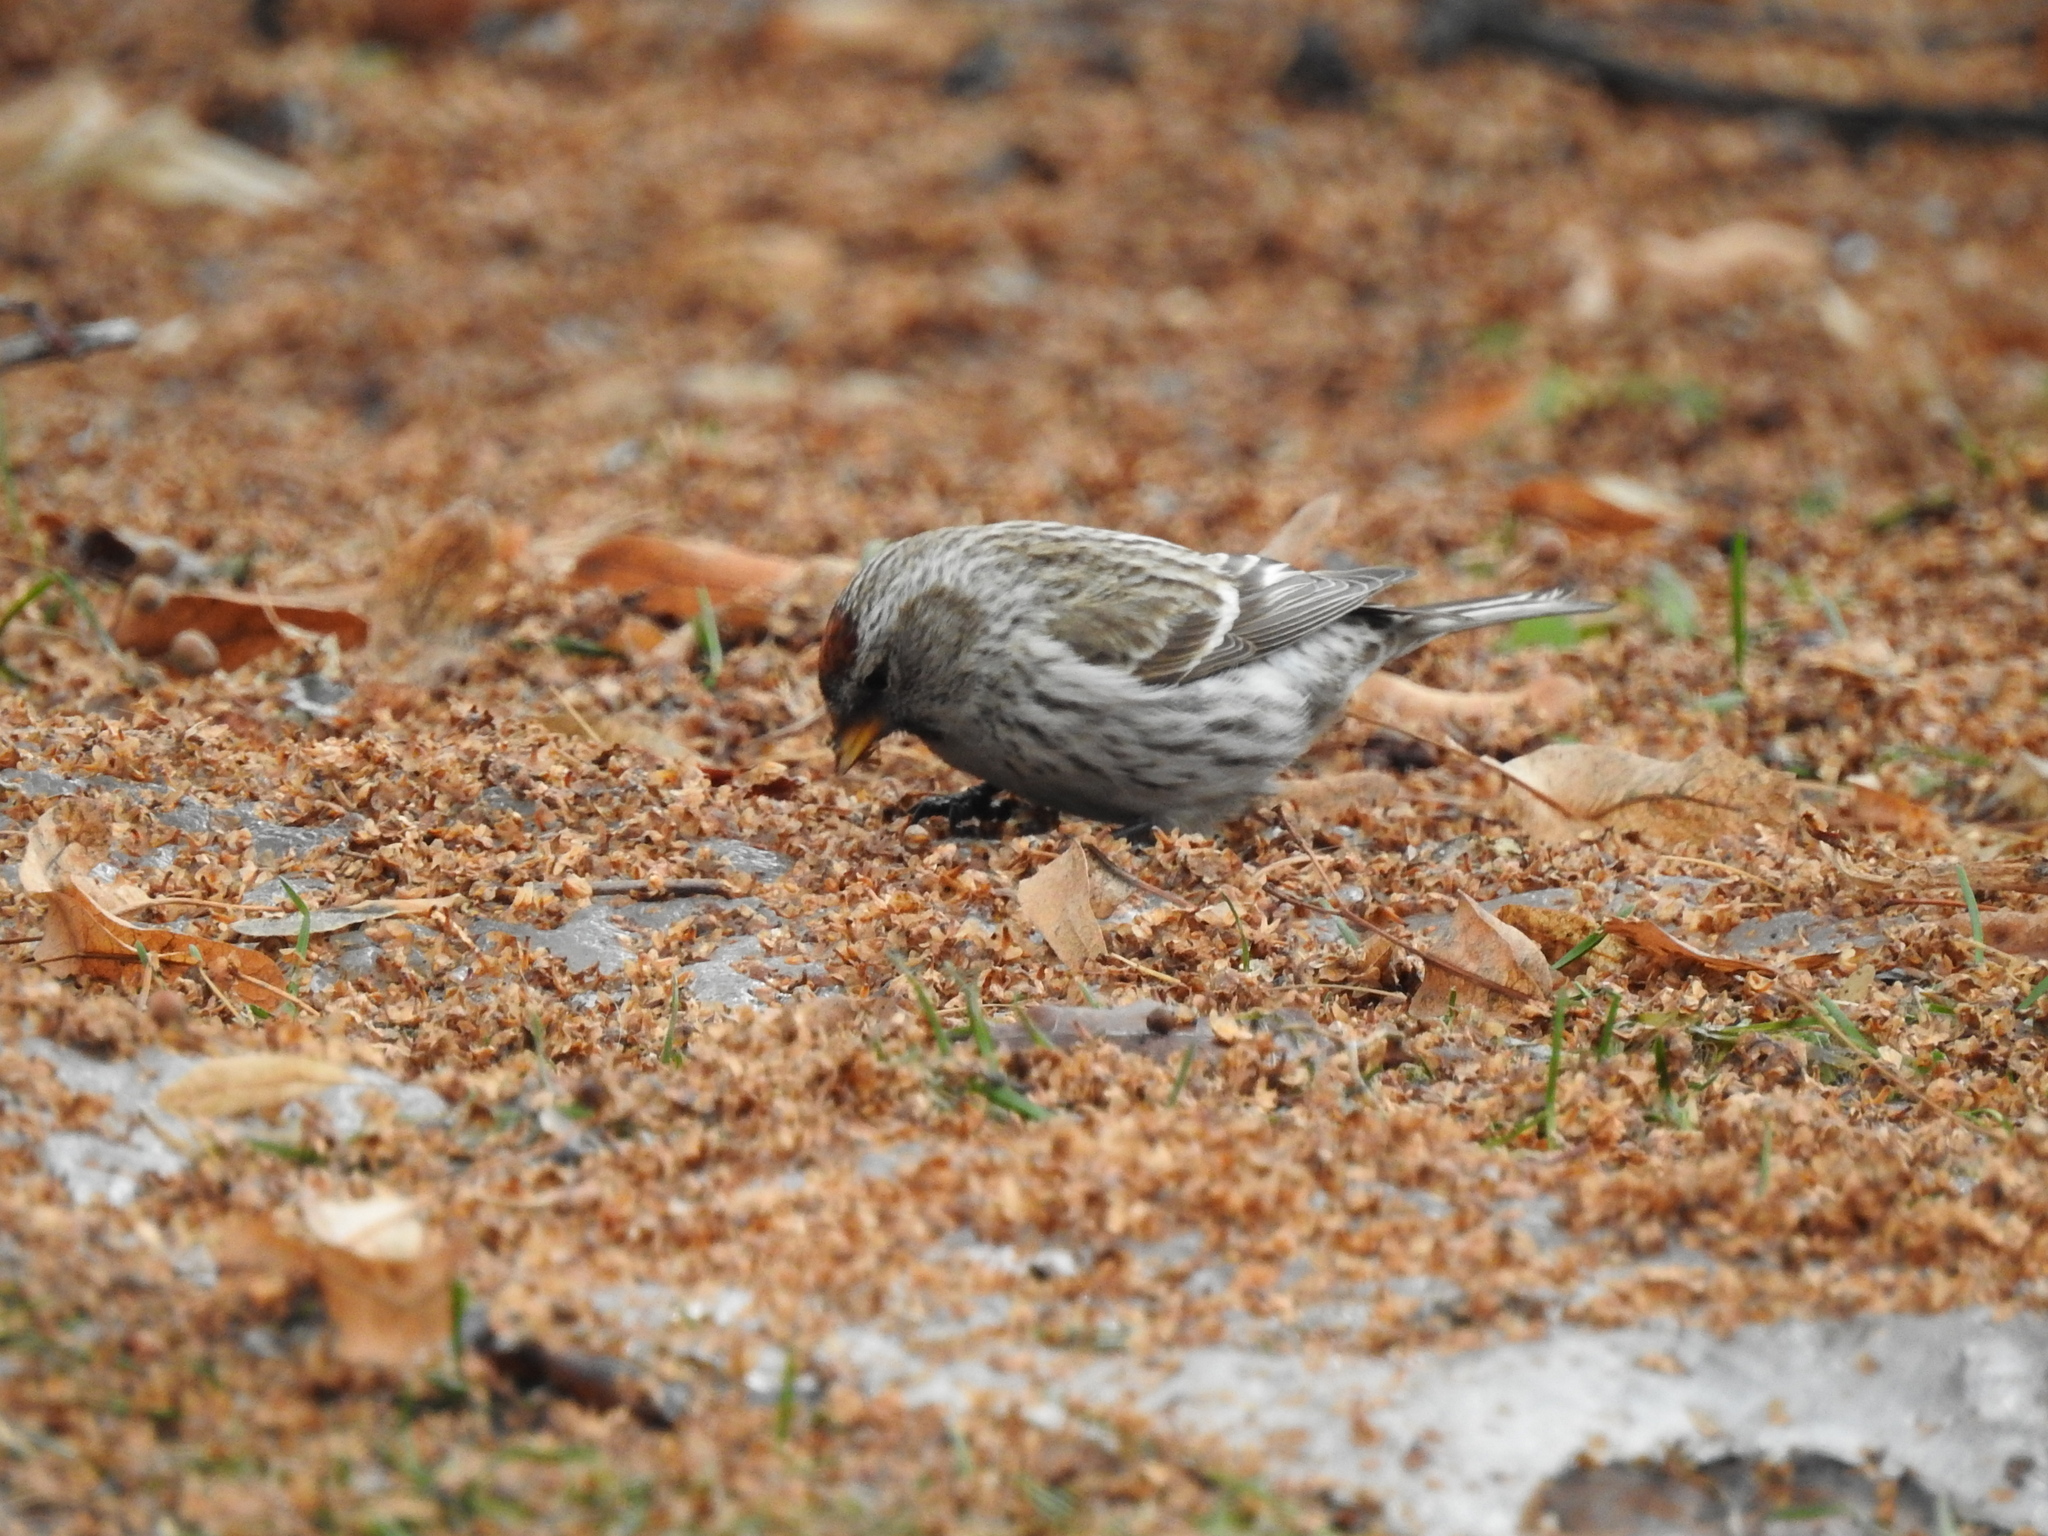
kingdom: Animalia
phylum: Chordata
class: Aves
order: Passeriformes
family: Fringillidae
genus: Acanthis
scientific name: Acanthis flammea
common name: Common redpoll
